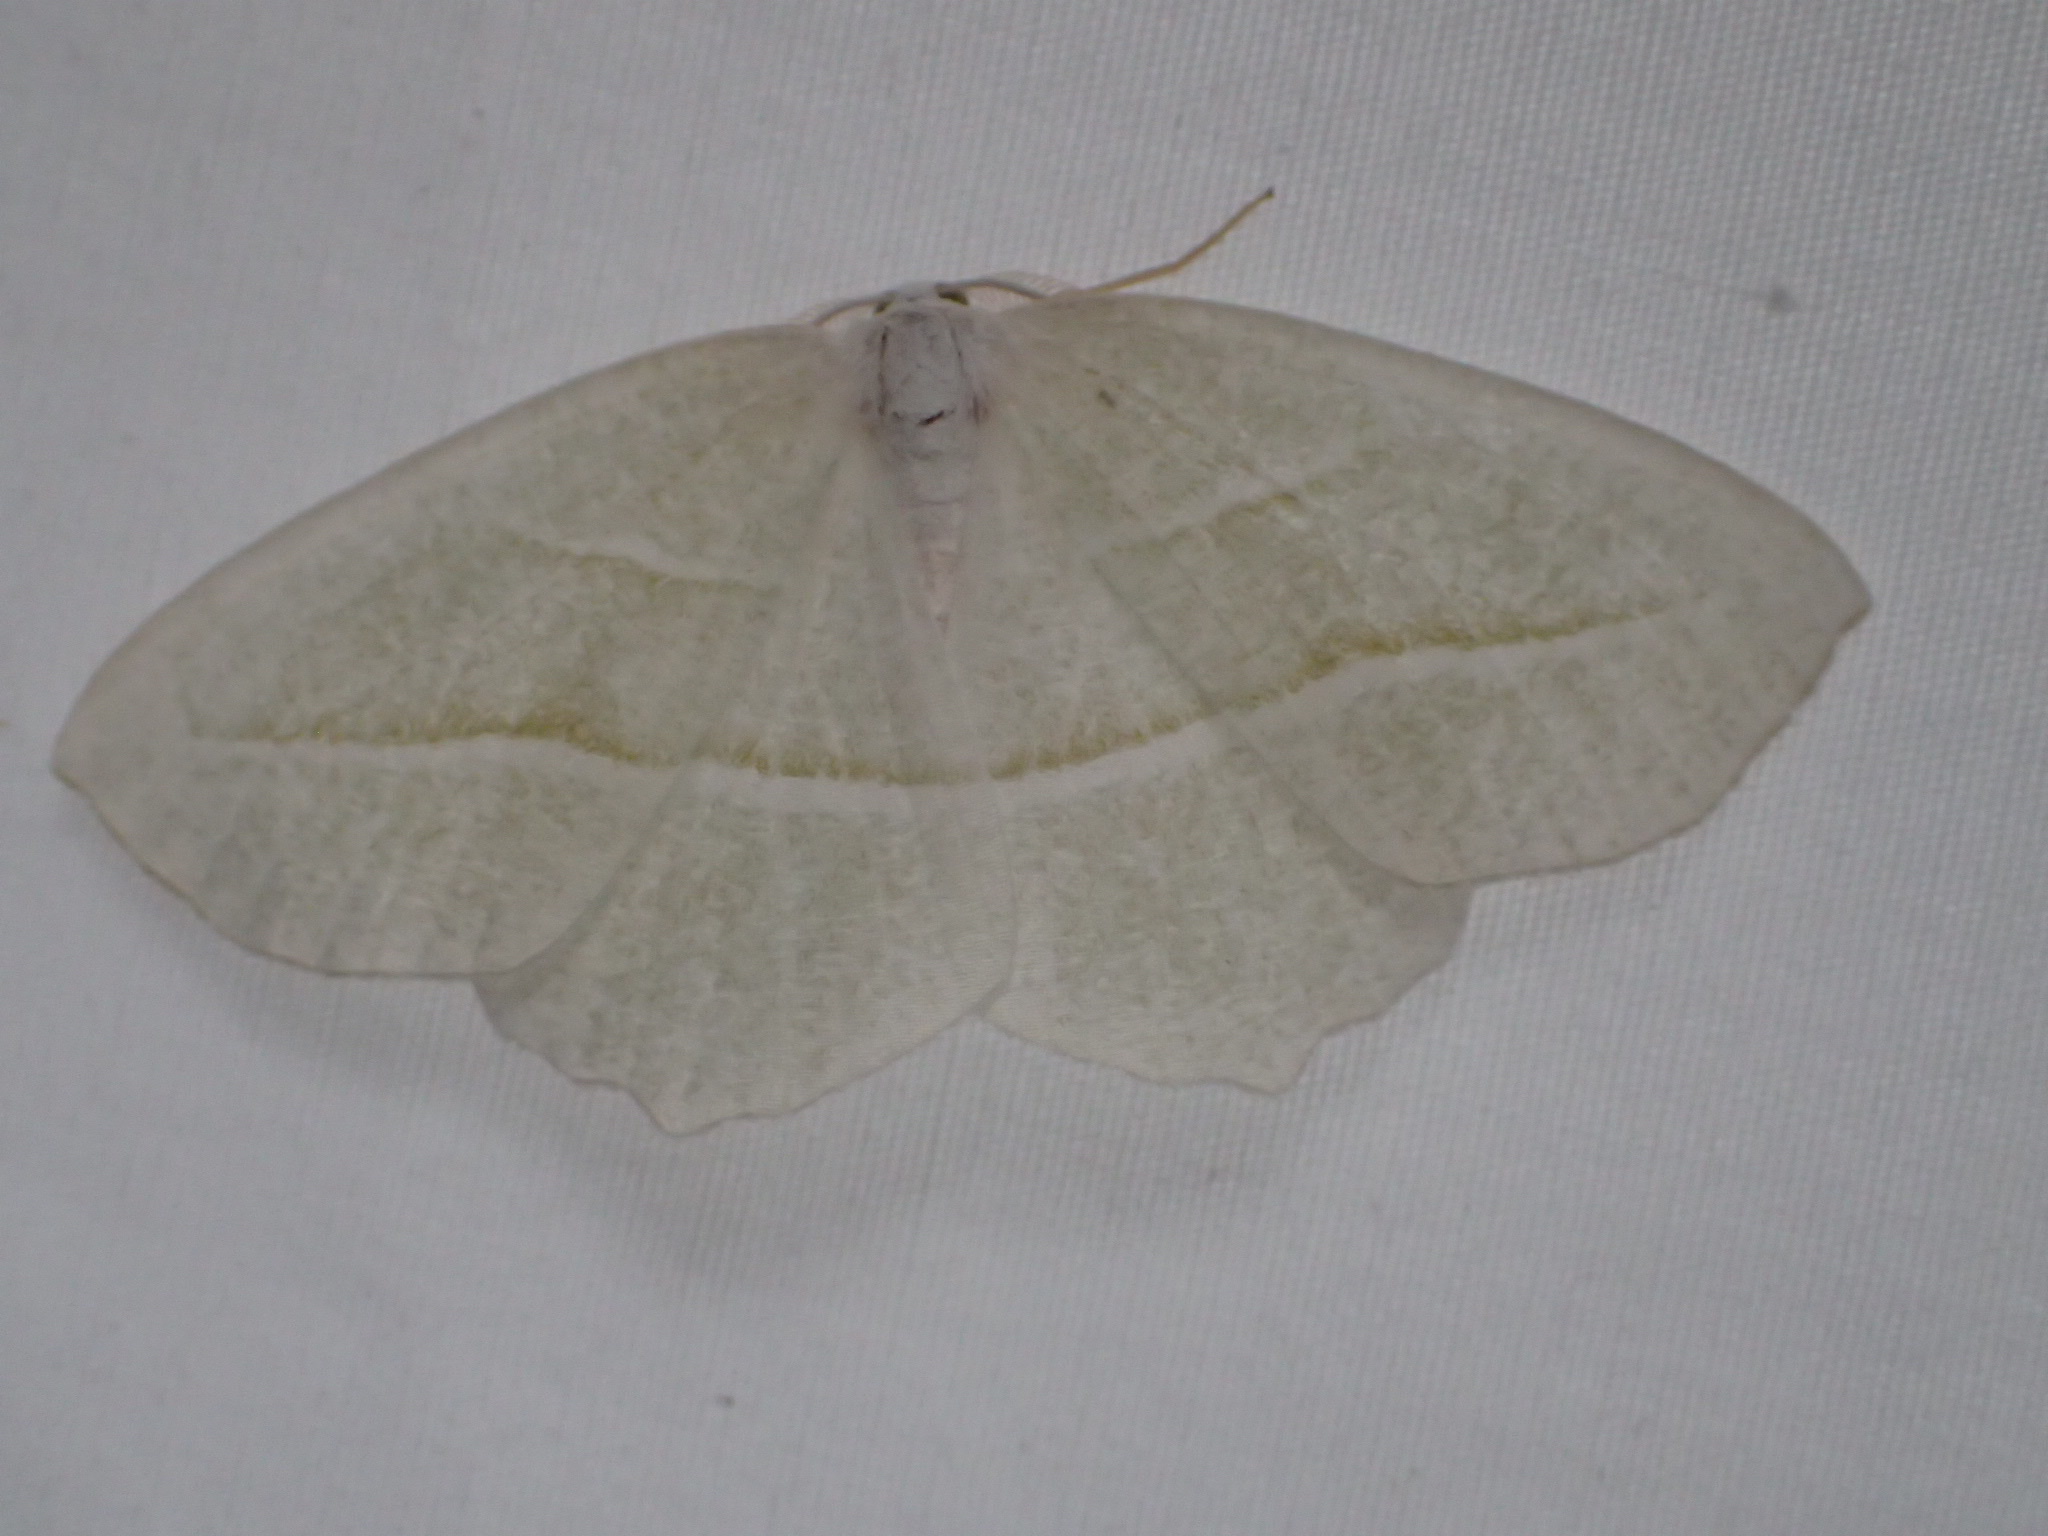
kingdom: Animalia
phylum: Arthropoda
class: Insecta
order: Lepidoptera
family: Geometridae
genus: Campaea
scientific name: Campaea perlata
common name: Fringed looper
